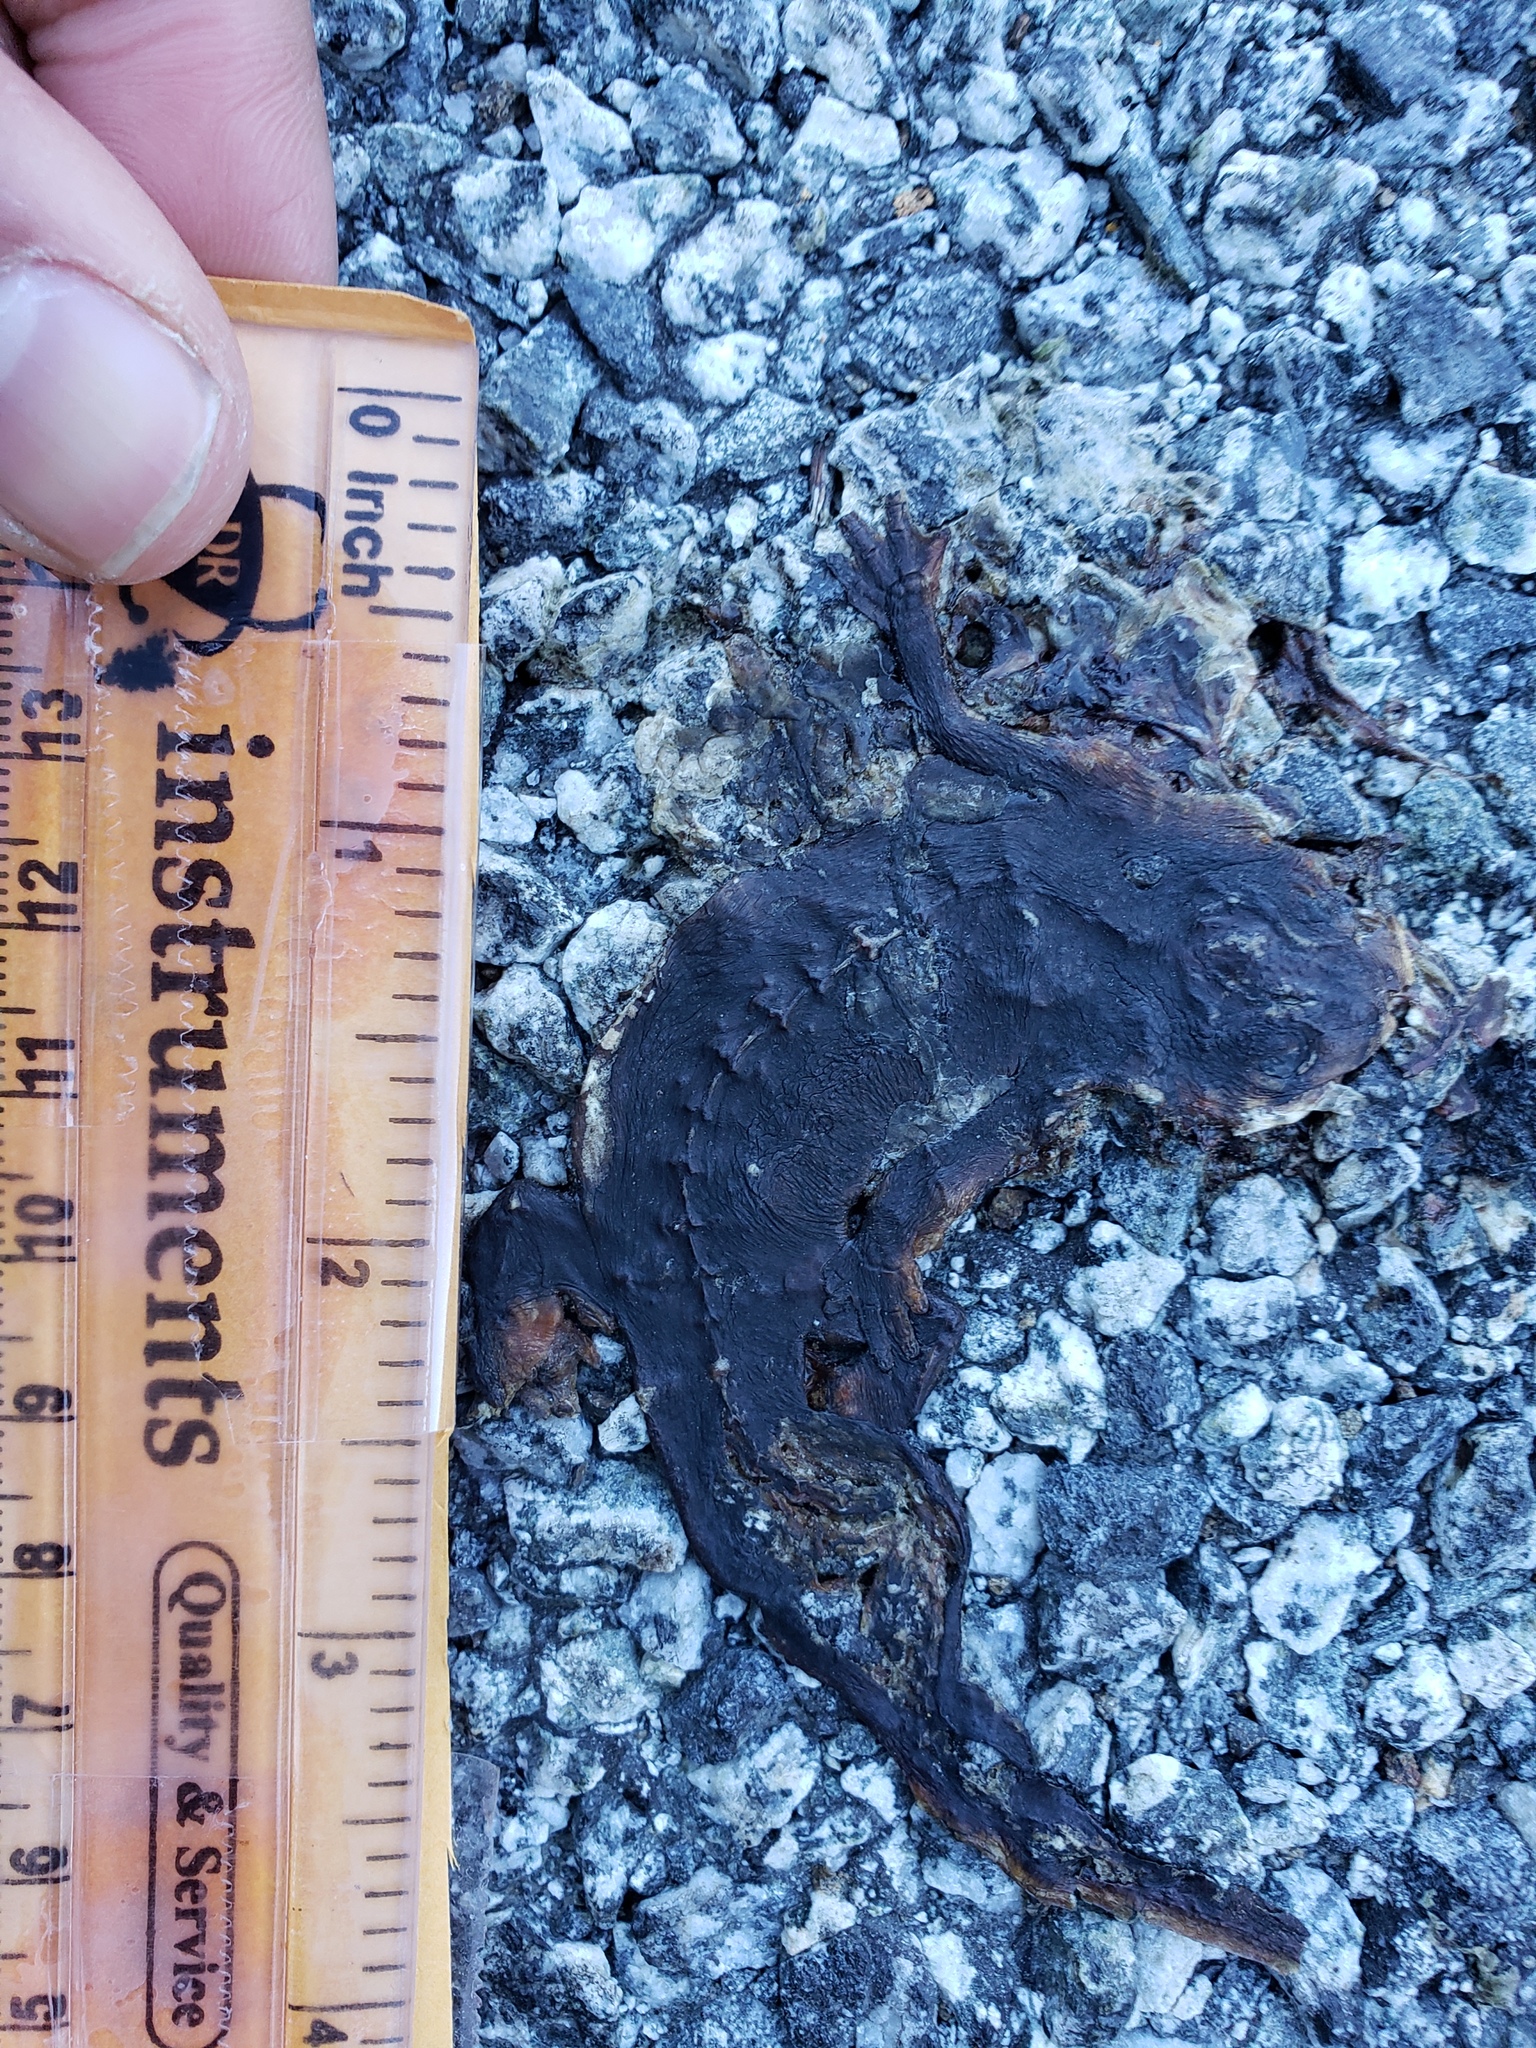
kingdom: Animalia
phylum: Chordata
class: Amphibia
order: Caudata
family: Salamandridae
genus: Taricha
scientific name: Taricha
